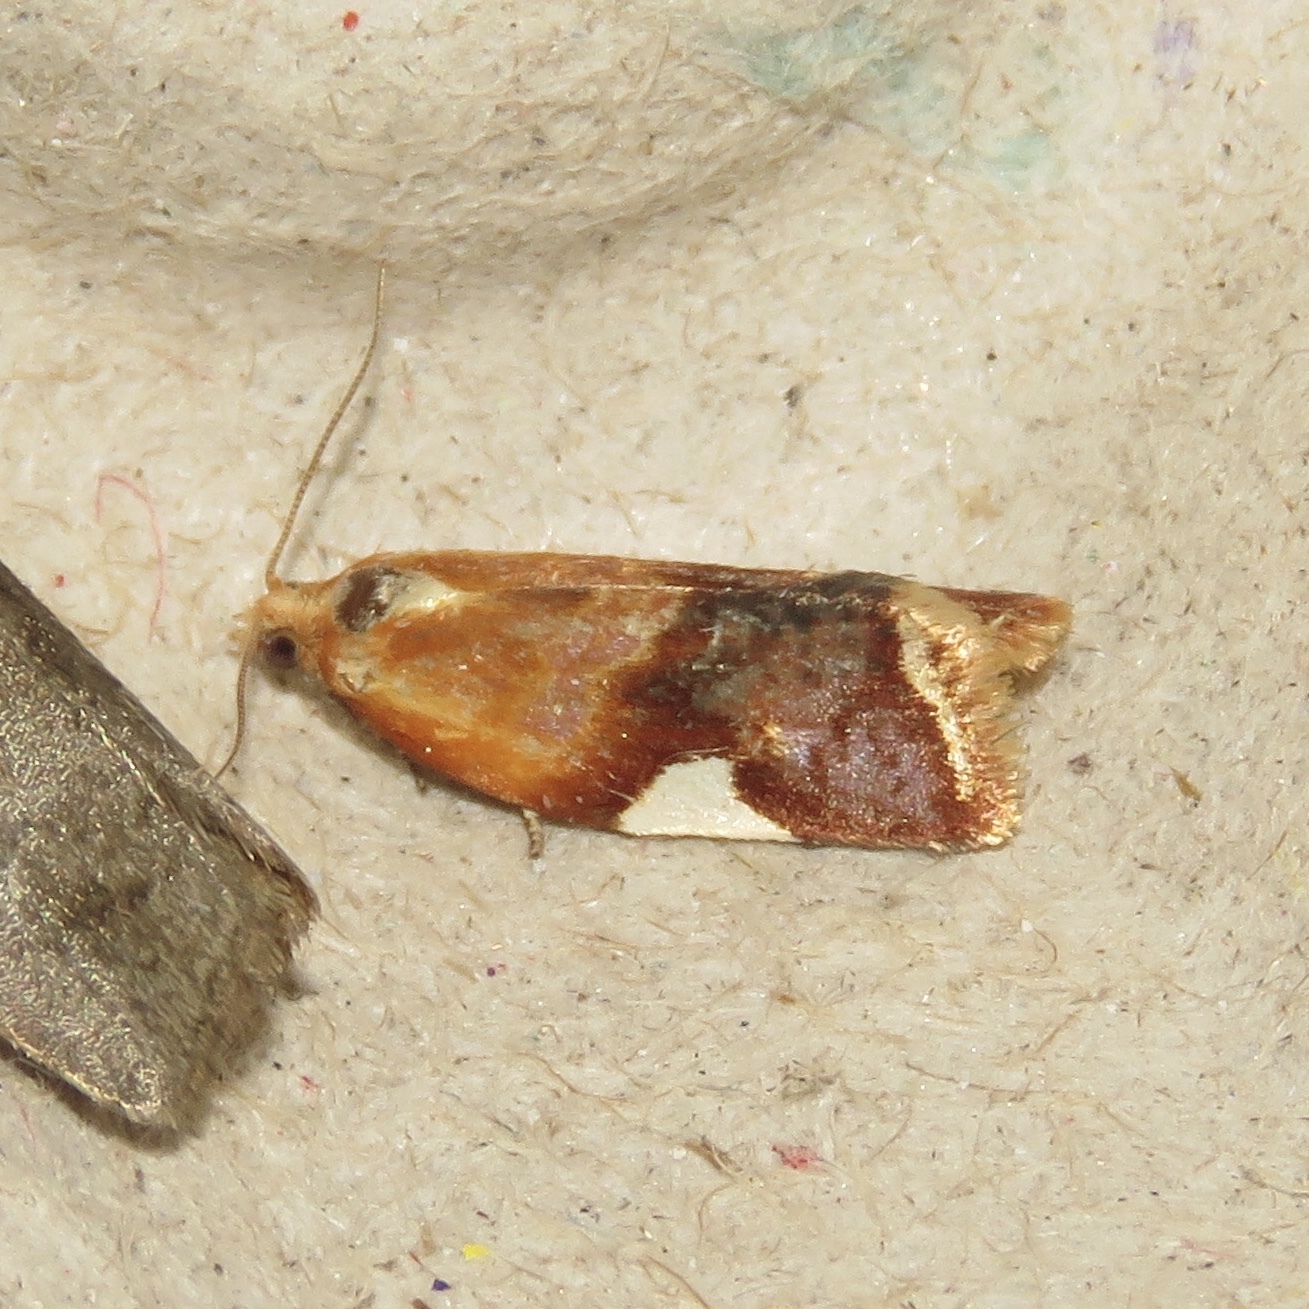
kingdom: Animalia
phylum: Arthropoda
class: Insecta
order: Lepidoptera
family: Tortricidae
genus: Clepsis
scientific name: Clepsis persicana
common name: White triangle tortrix
